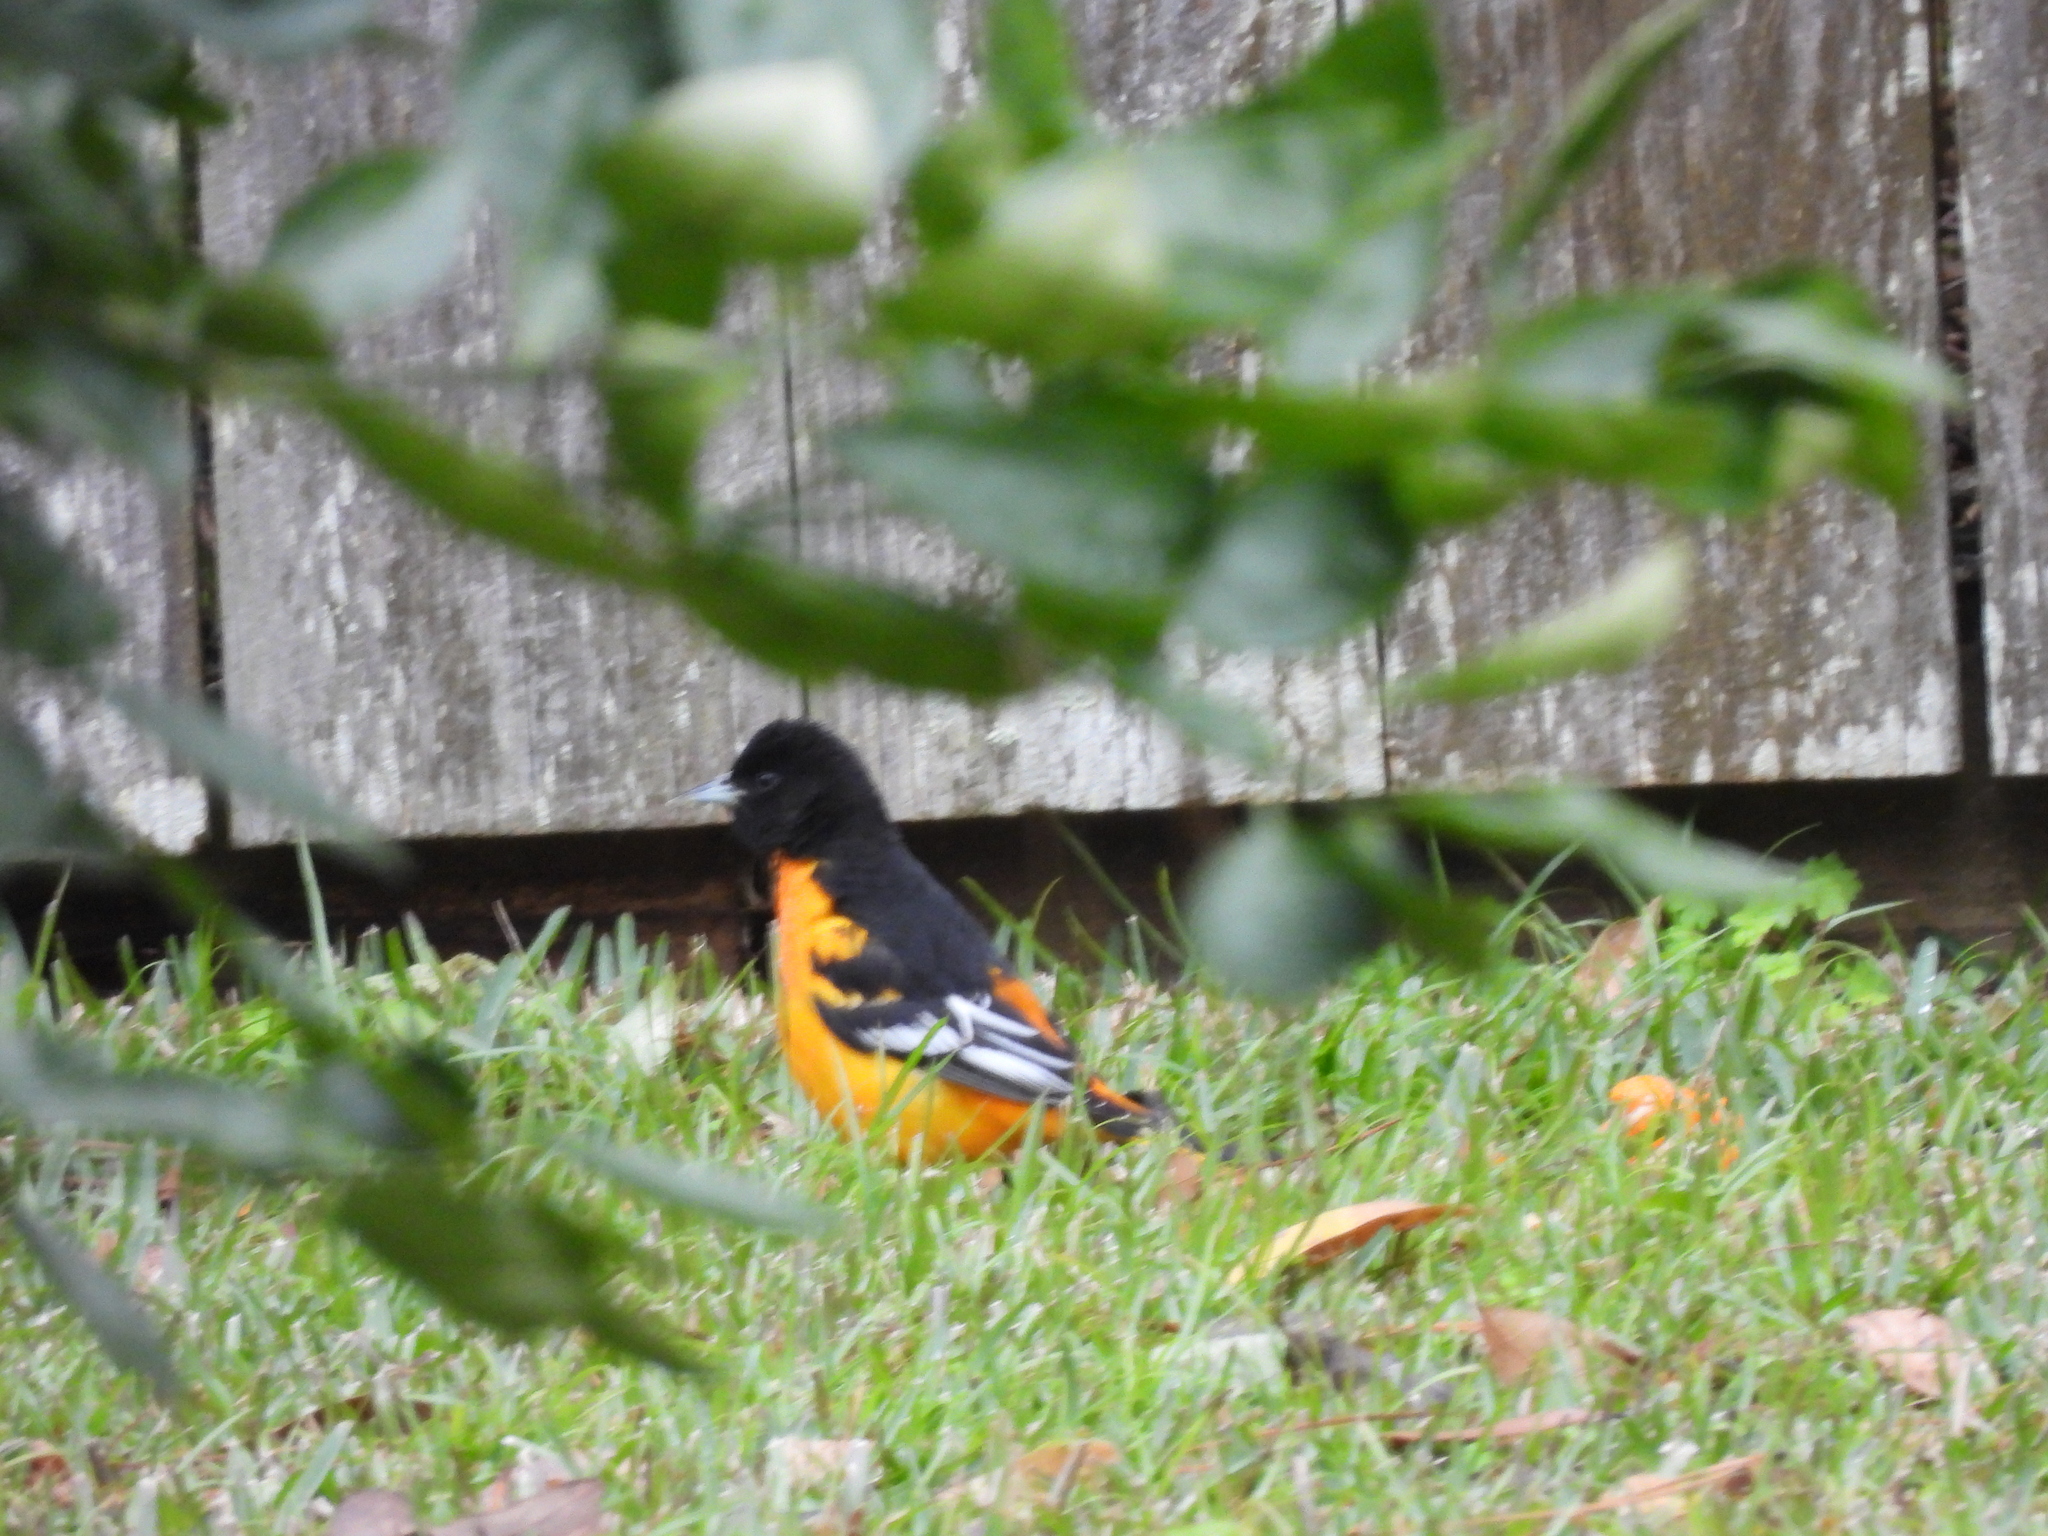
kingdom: Animalia
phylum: Chordata
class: Aves
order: Passeriformes
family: Icteridae
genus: Icterus
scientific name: Icterus galbula
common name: Baltimore oriole
